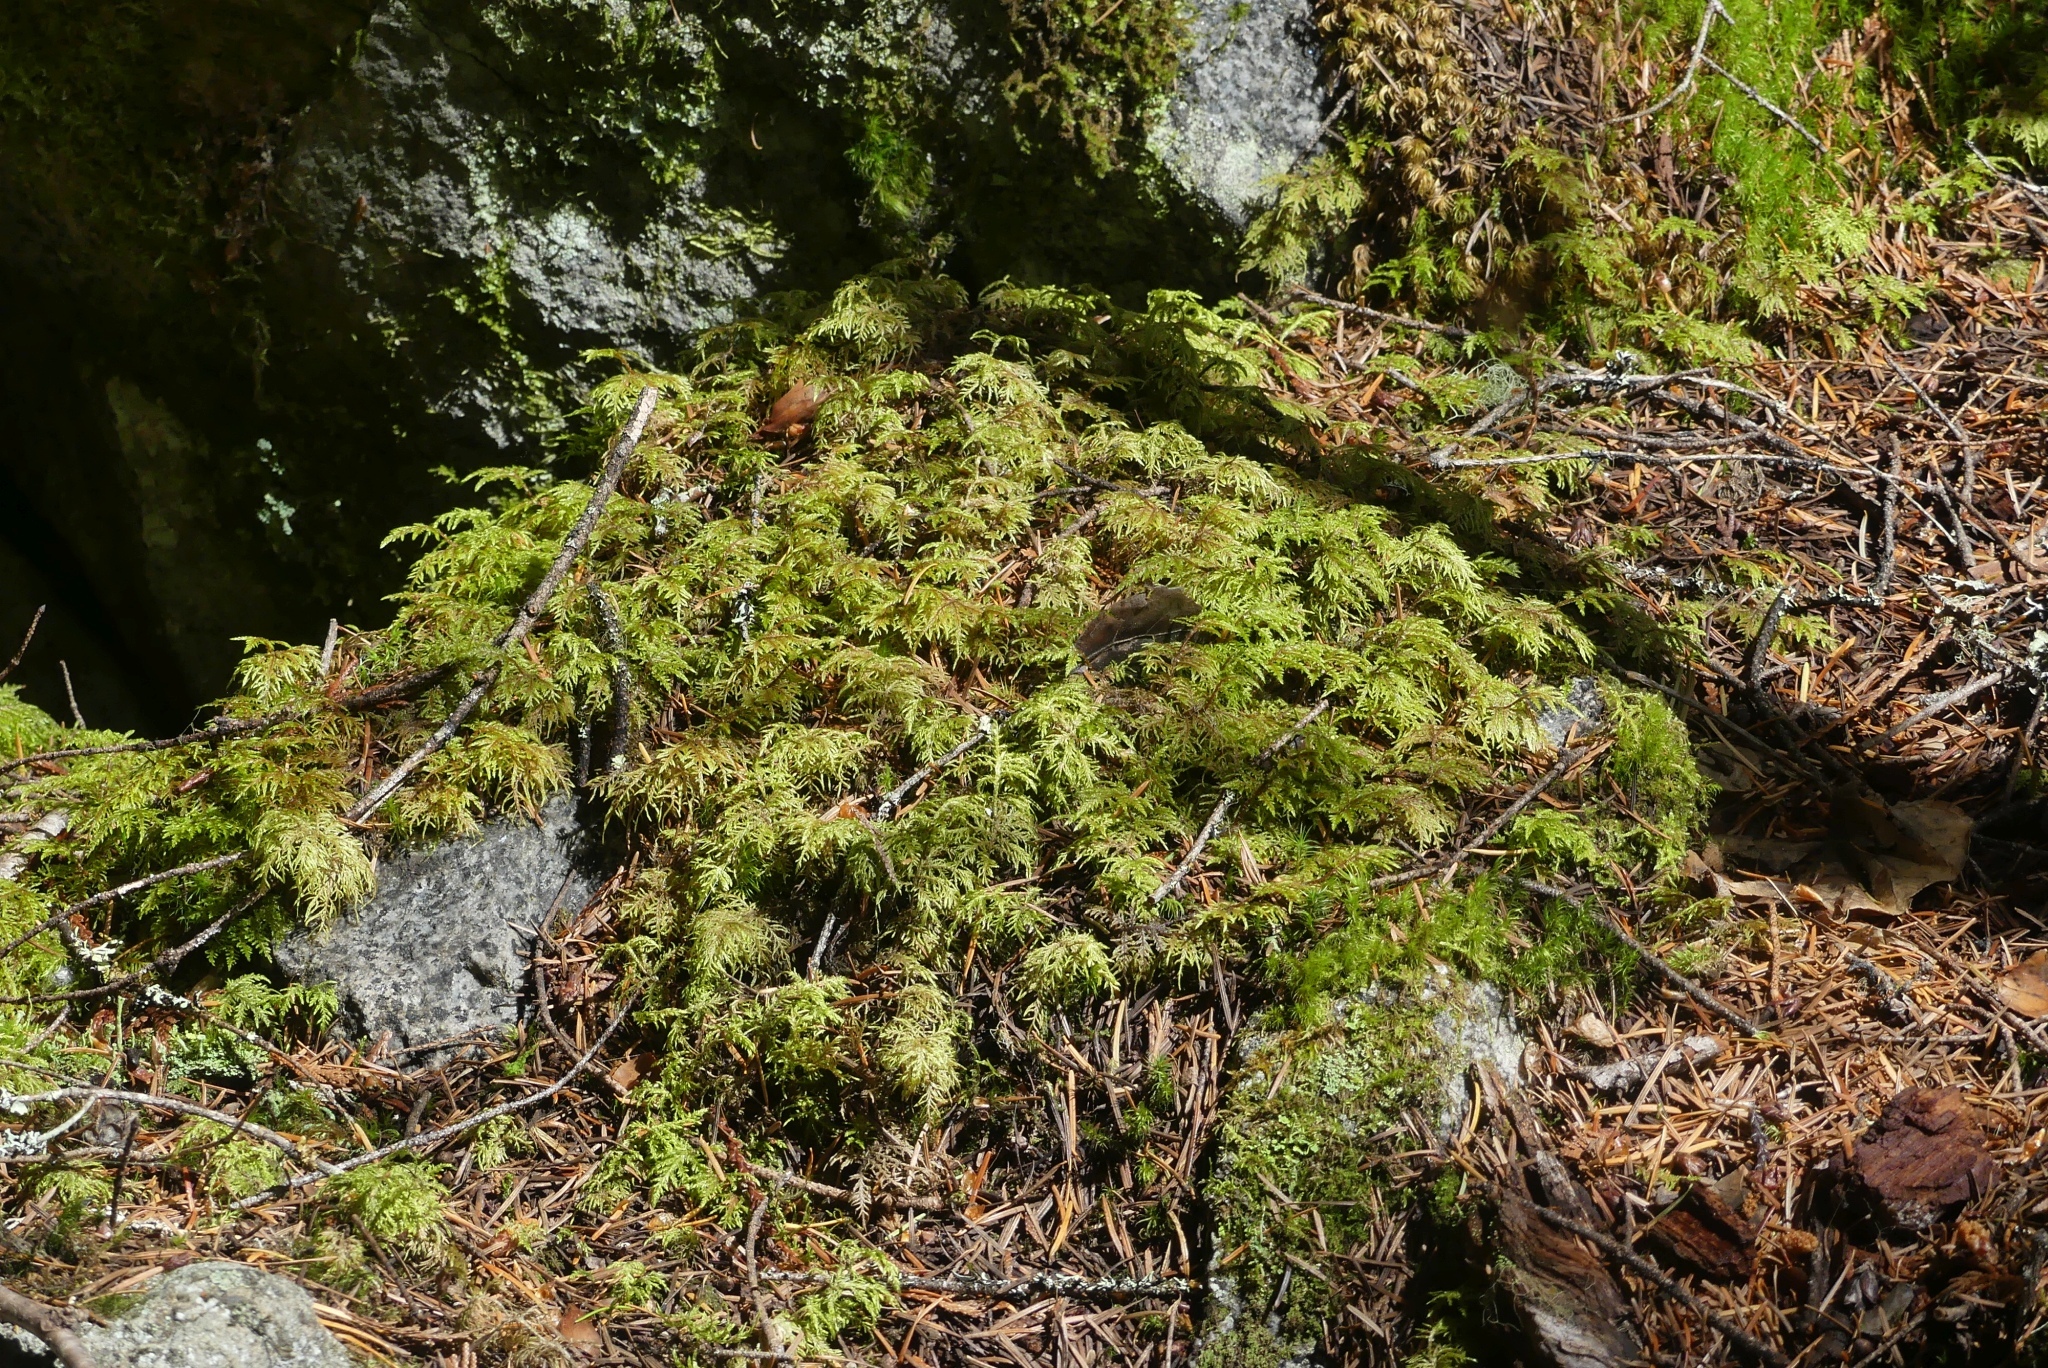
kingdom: Plantae
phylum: Bryophyta
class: Bryopsida
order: Hypnales
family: Hylocomiaceae
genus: Hylocomium
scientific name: Hylocomium splendens
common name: Stairstep moss
